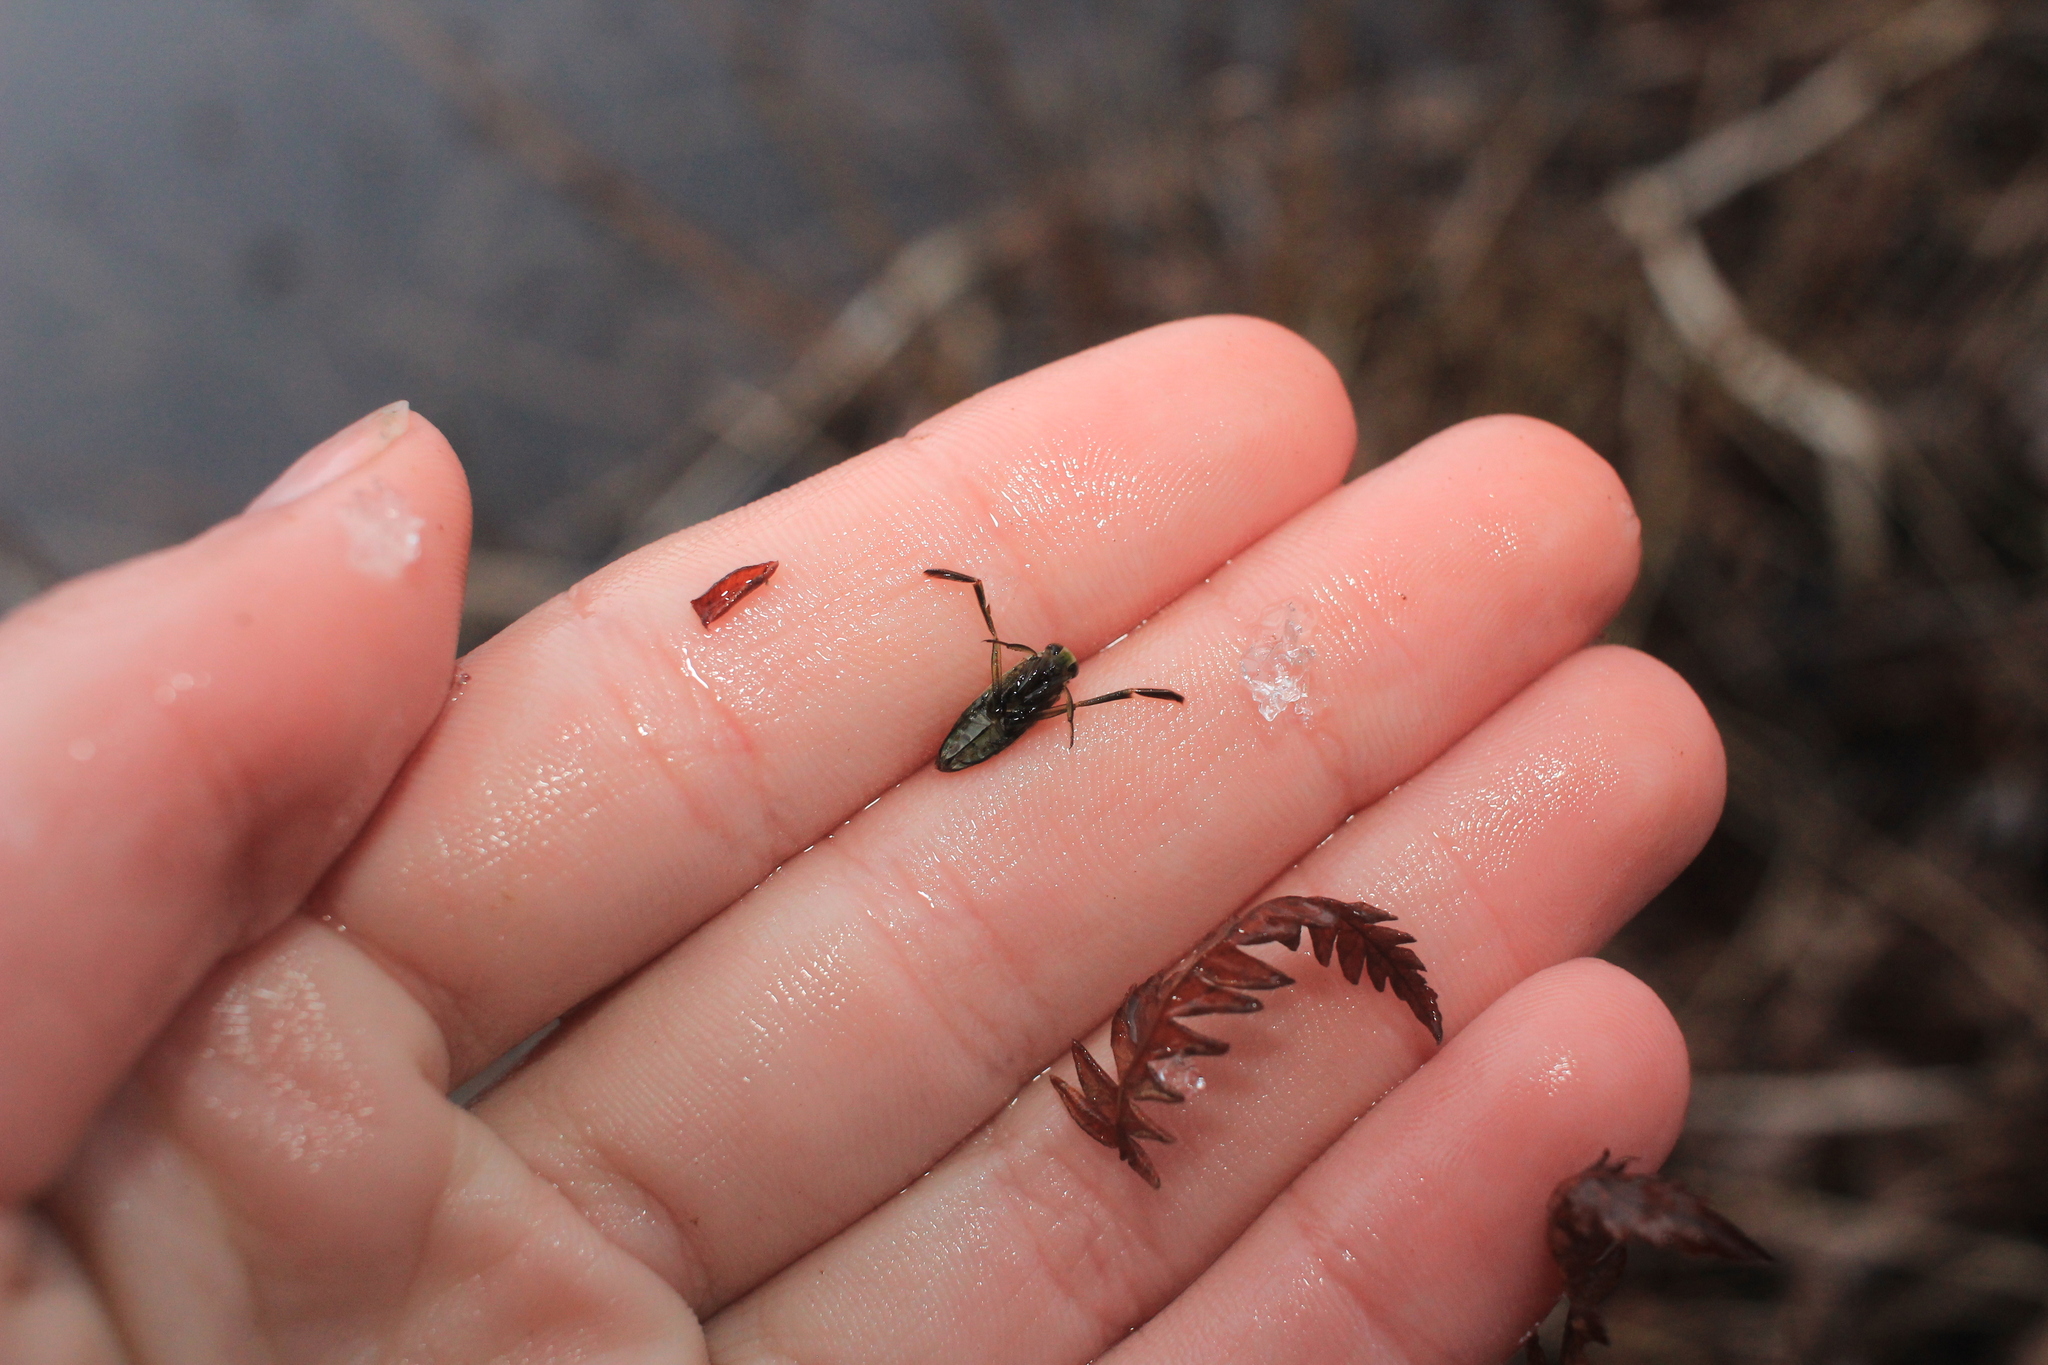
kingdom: Animalia
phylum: Arthropoda
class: Insecta
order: Hemiptera
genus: Paranecta
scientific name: Paranecta
